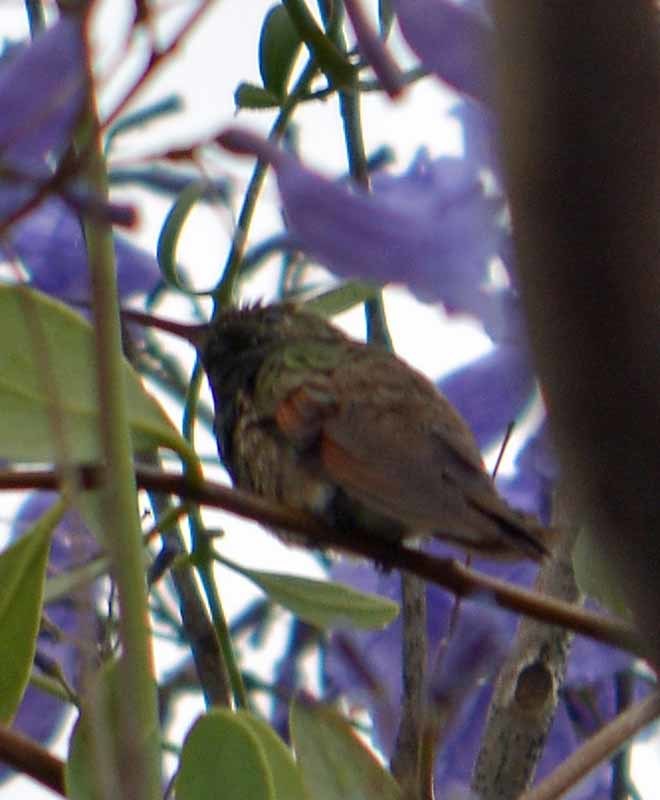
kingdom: Animalia
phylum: Chordata
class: Aves
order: Apodiformes
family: Trochilidae
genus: Saucerottia
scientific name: Saucerottia beryllina
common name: Berylline hummingbird
